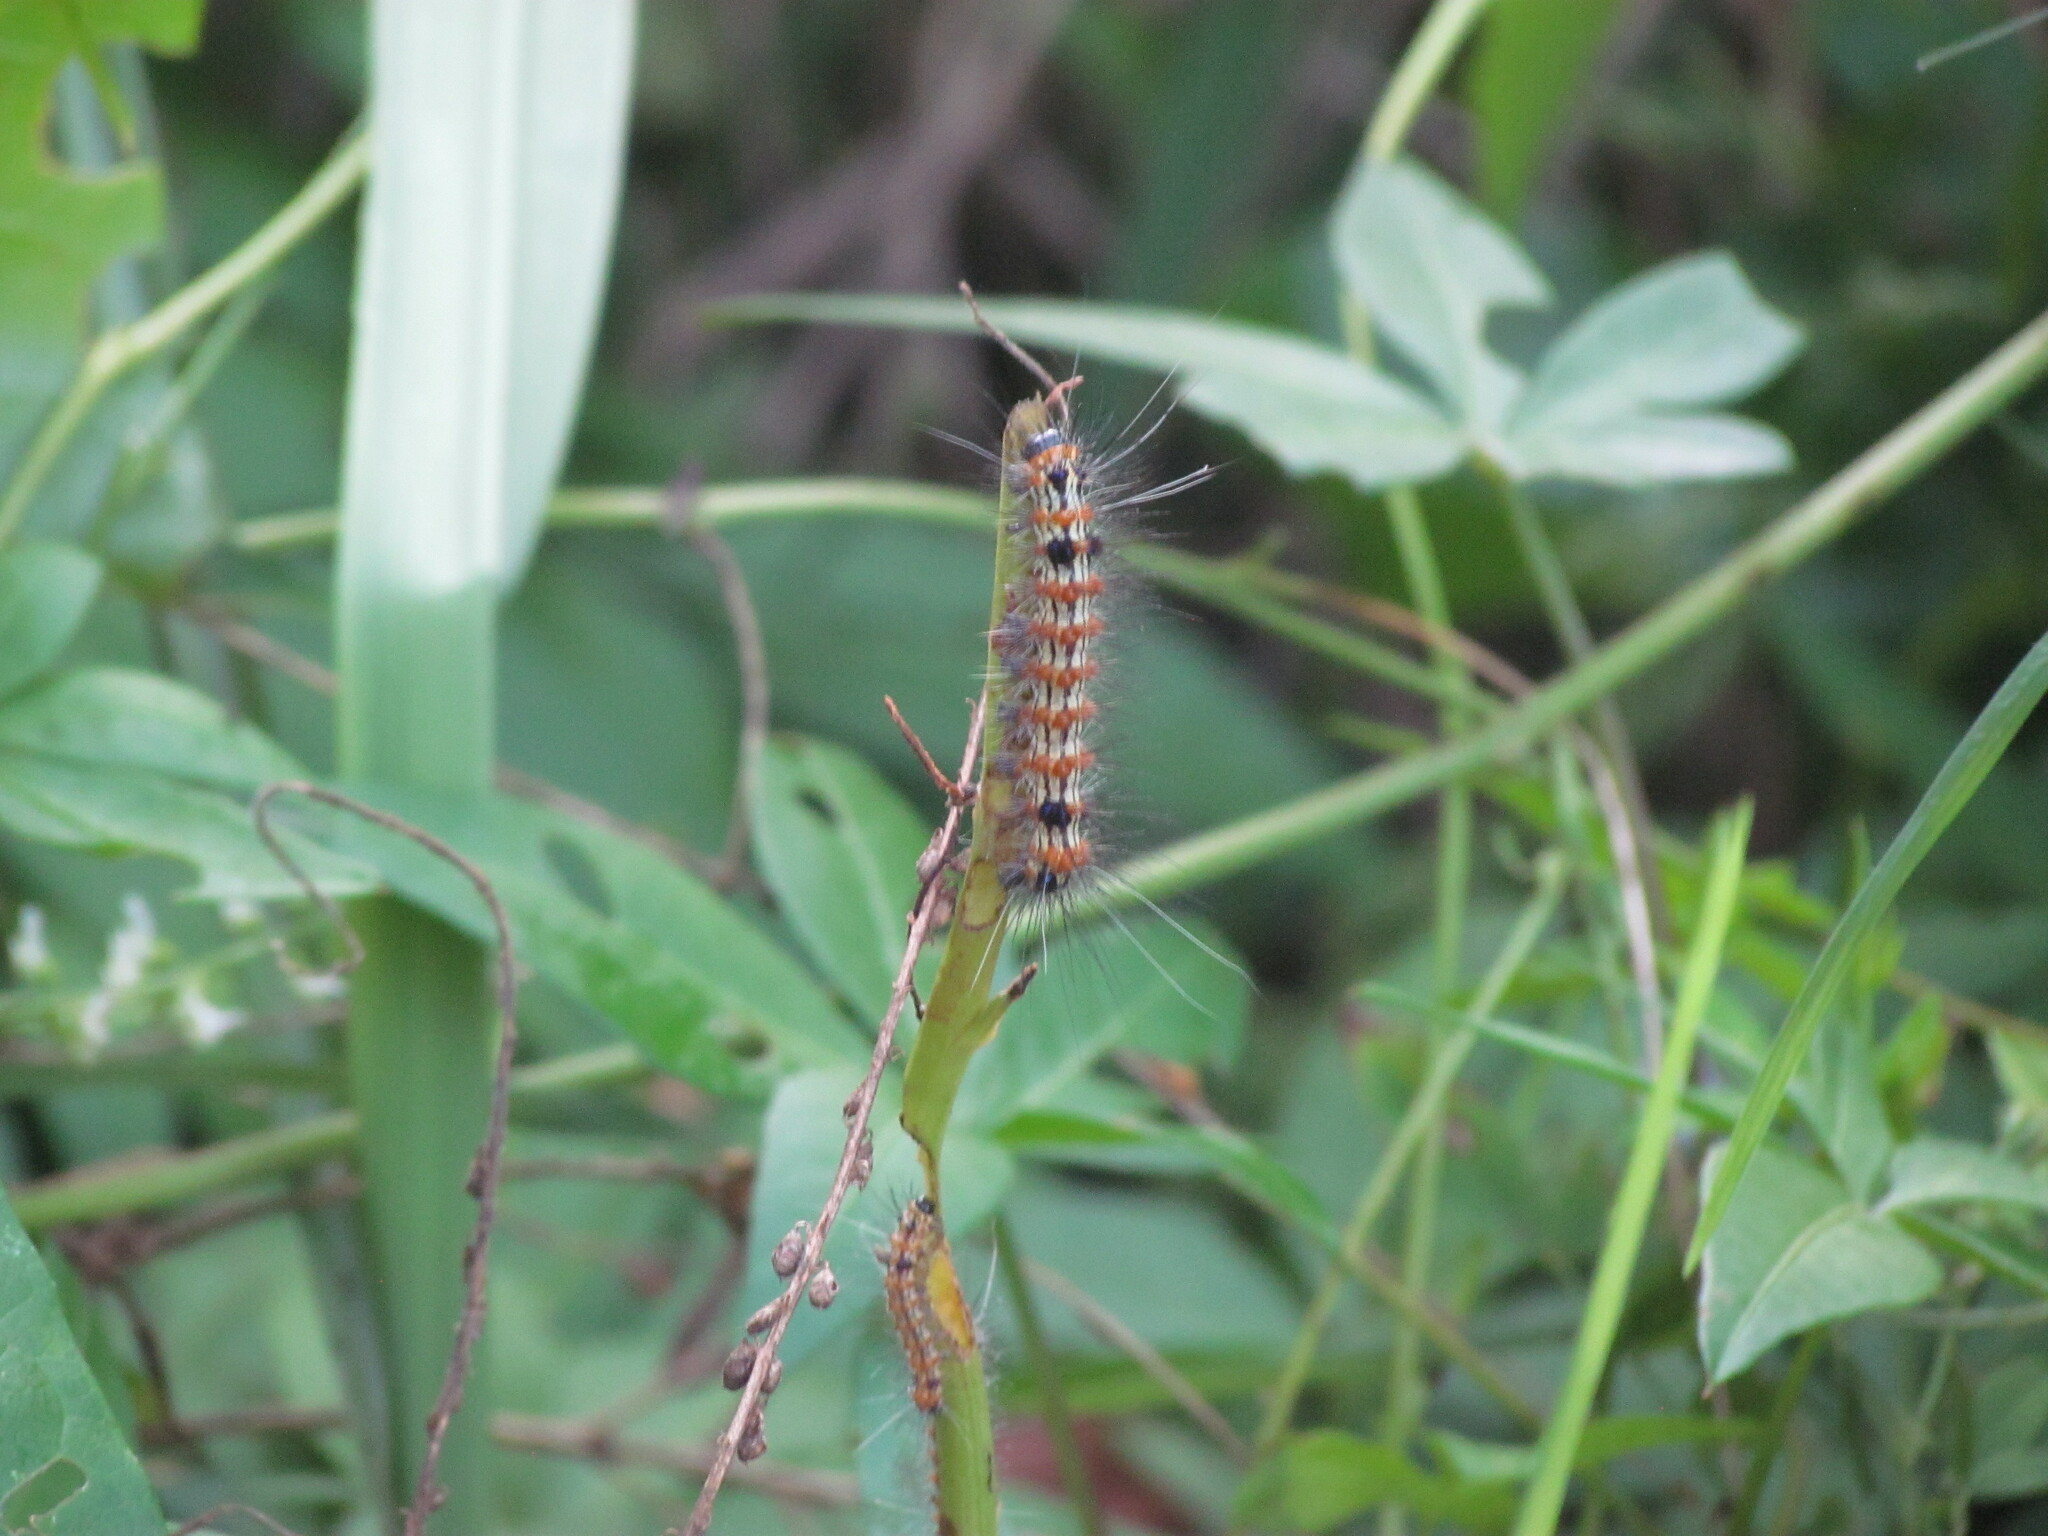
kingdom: Animalia
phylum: Arthropoda
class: Insecta
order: Lepidoptera
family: Erebidae
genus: Dysschema
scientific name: Dysschema sacrifica
